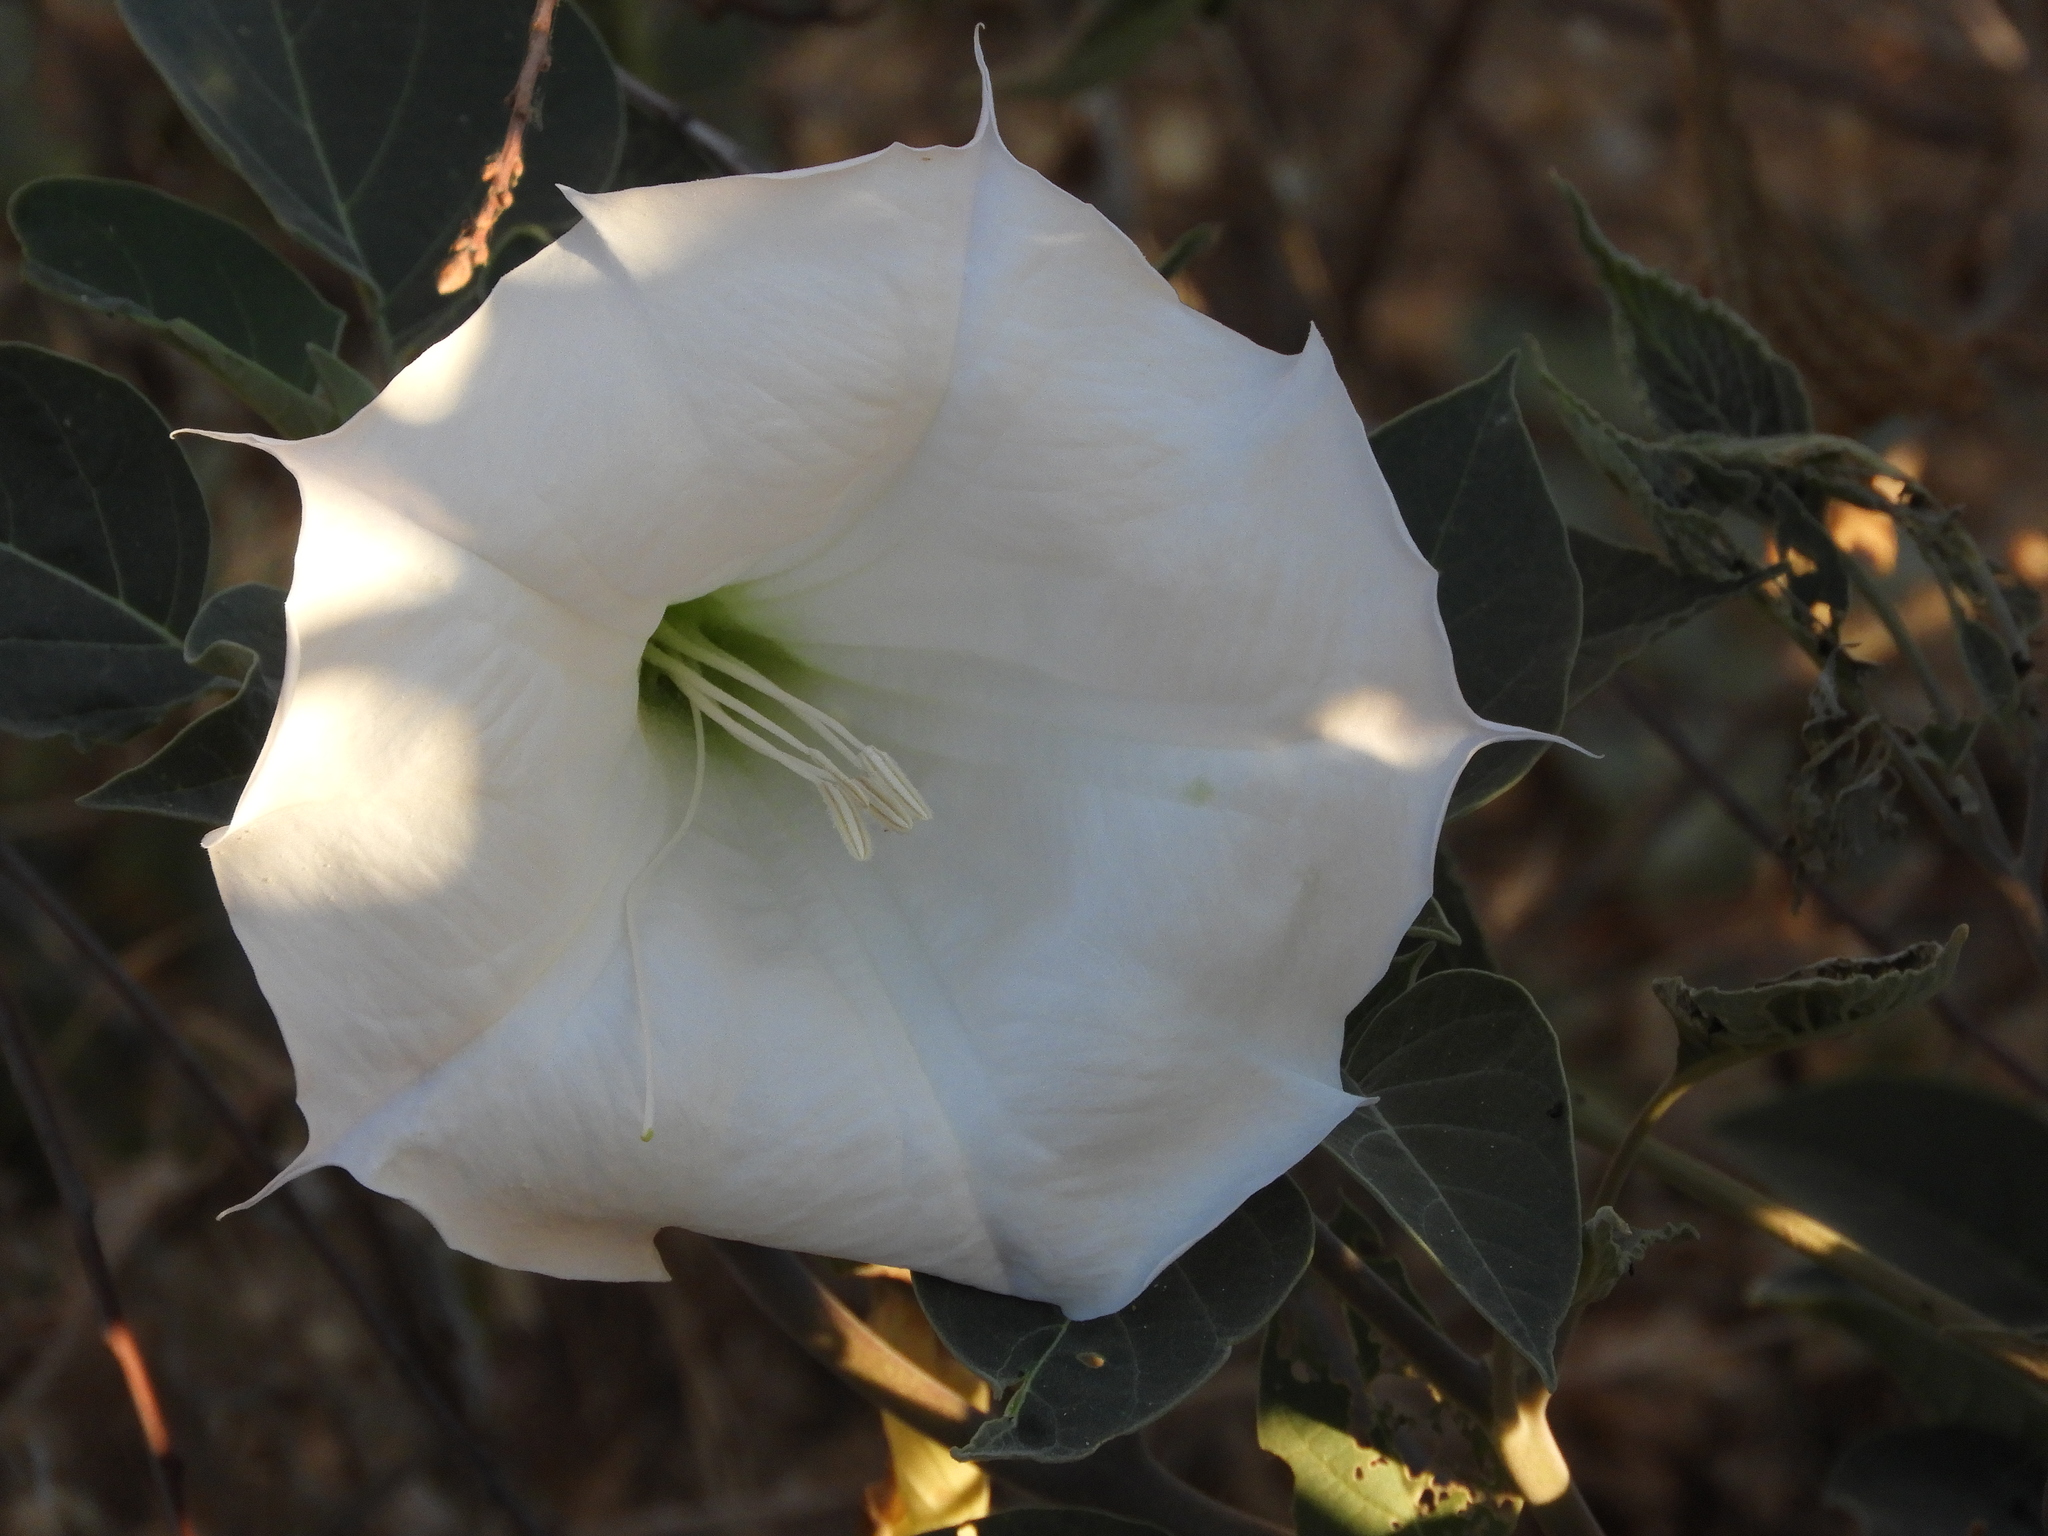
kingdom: Plantae
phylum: Tracheophyta
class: Magnoliopsida
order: Solanales
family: Solanaceae
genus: Datura
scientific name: Datura wrightii
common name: Sacred thorn-apple
